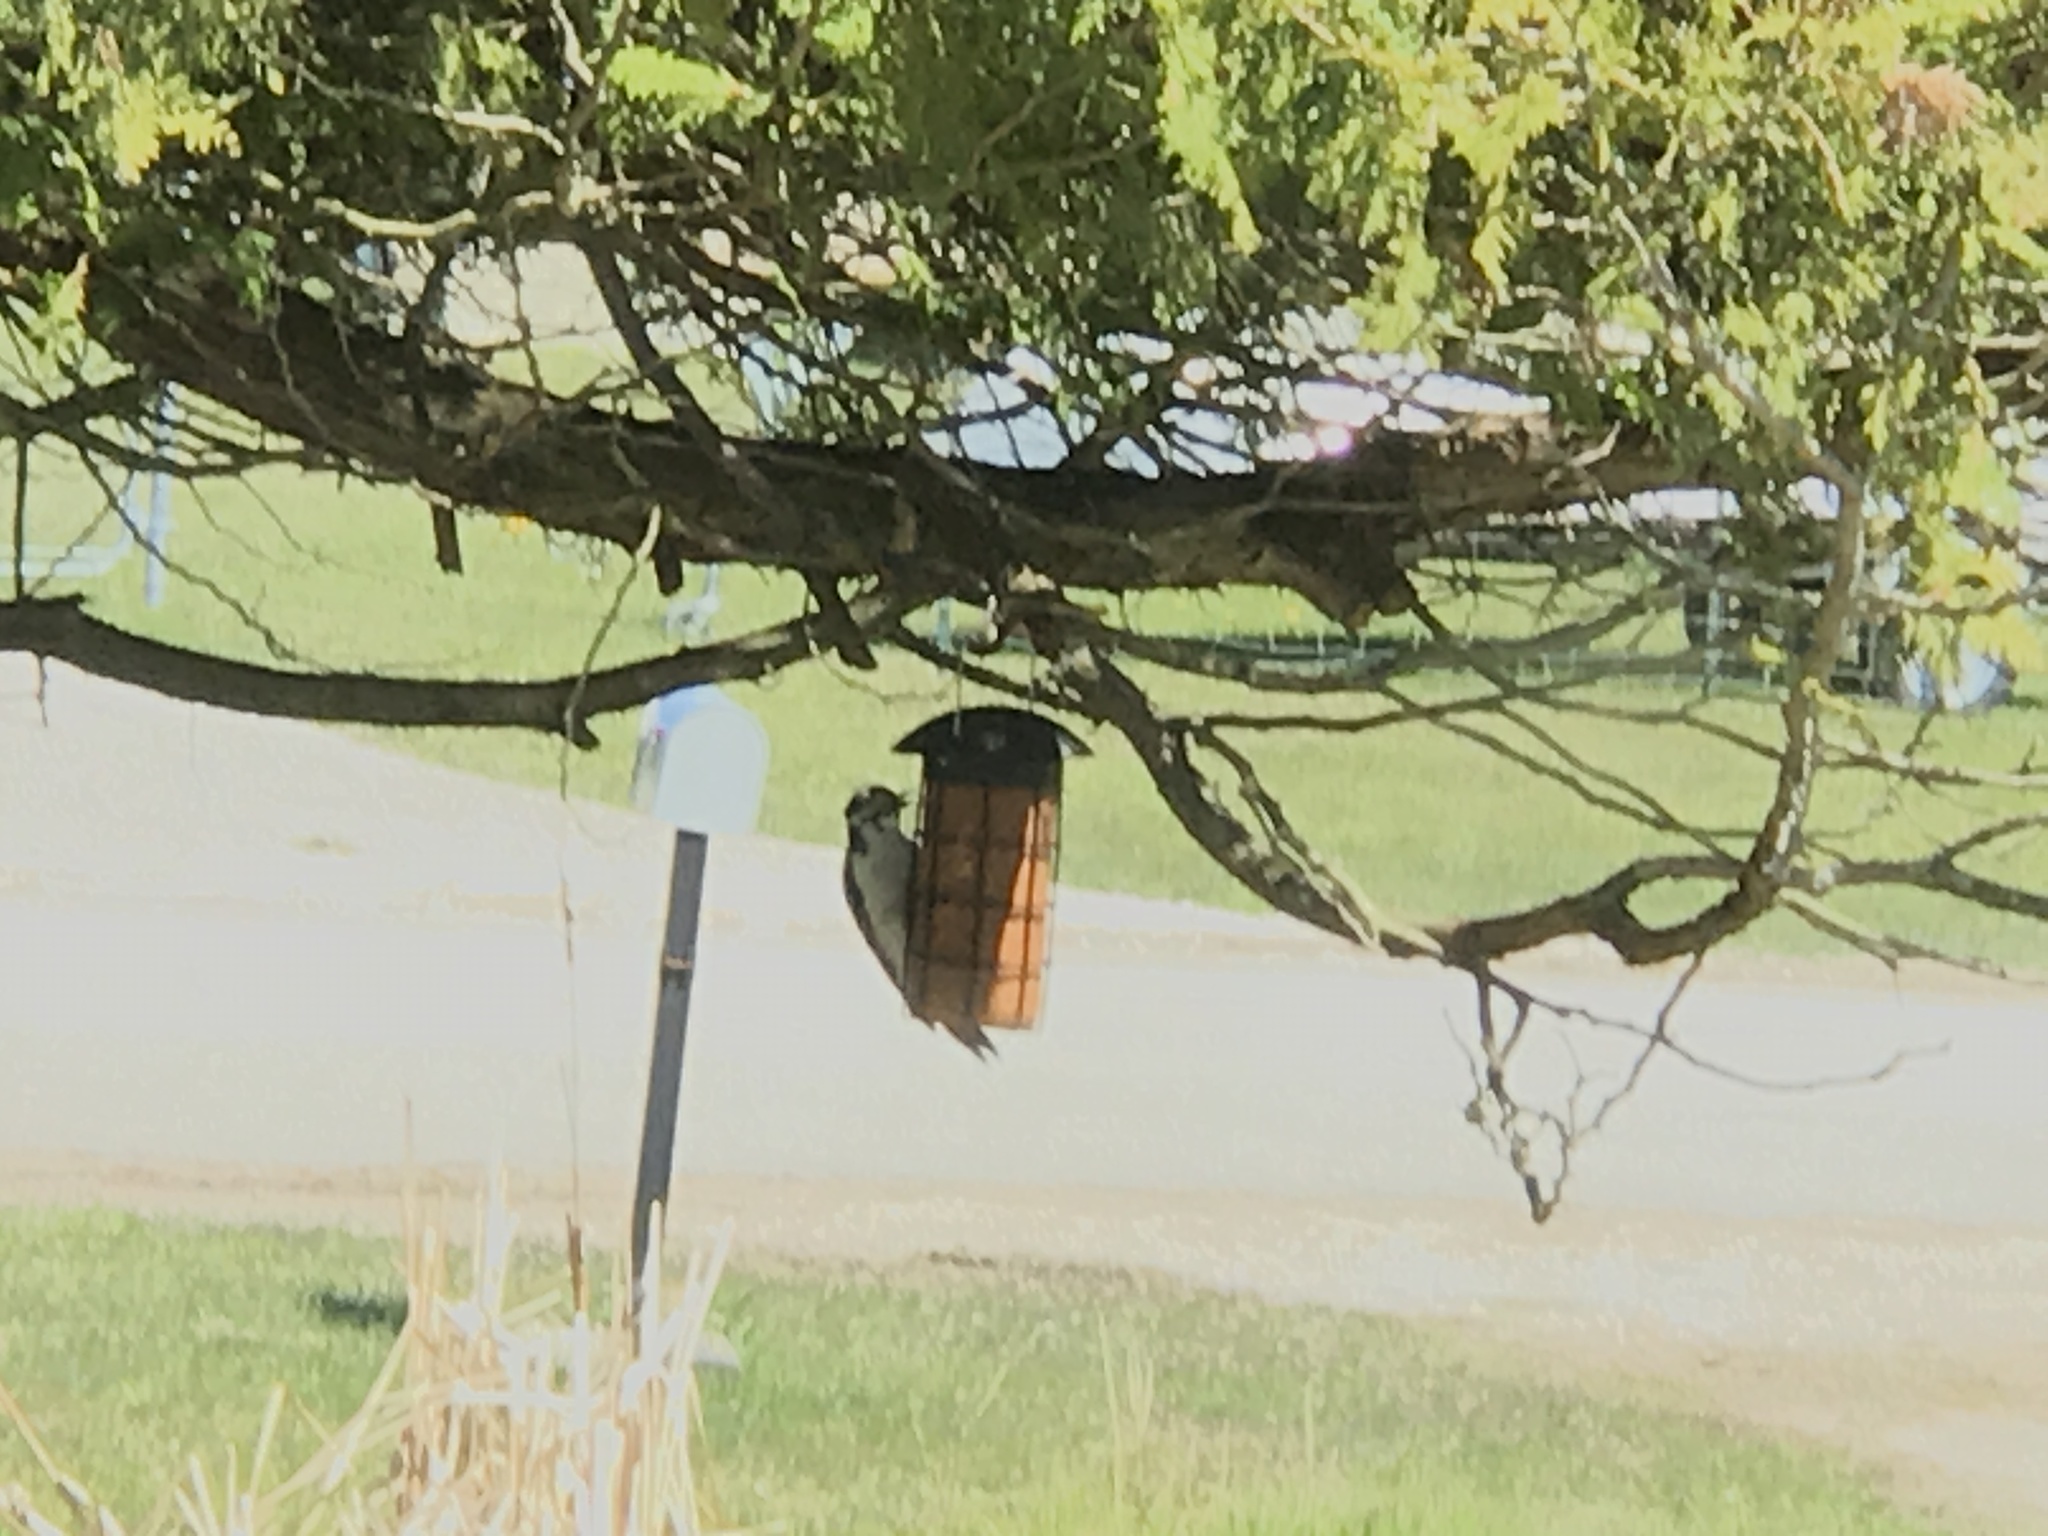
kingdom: Animalia
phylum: Chordata
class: Aves
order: Piciformes
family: Picidae
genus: Dryobates
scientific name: Dryobates pubescens
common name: Downy woodpecker
